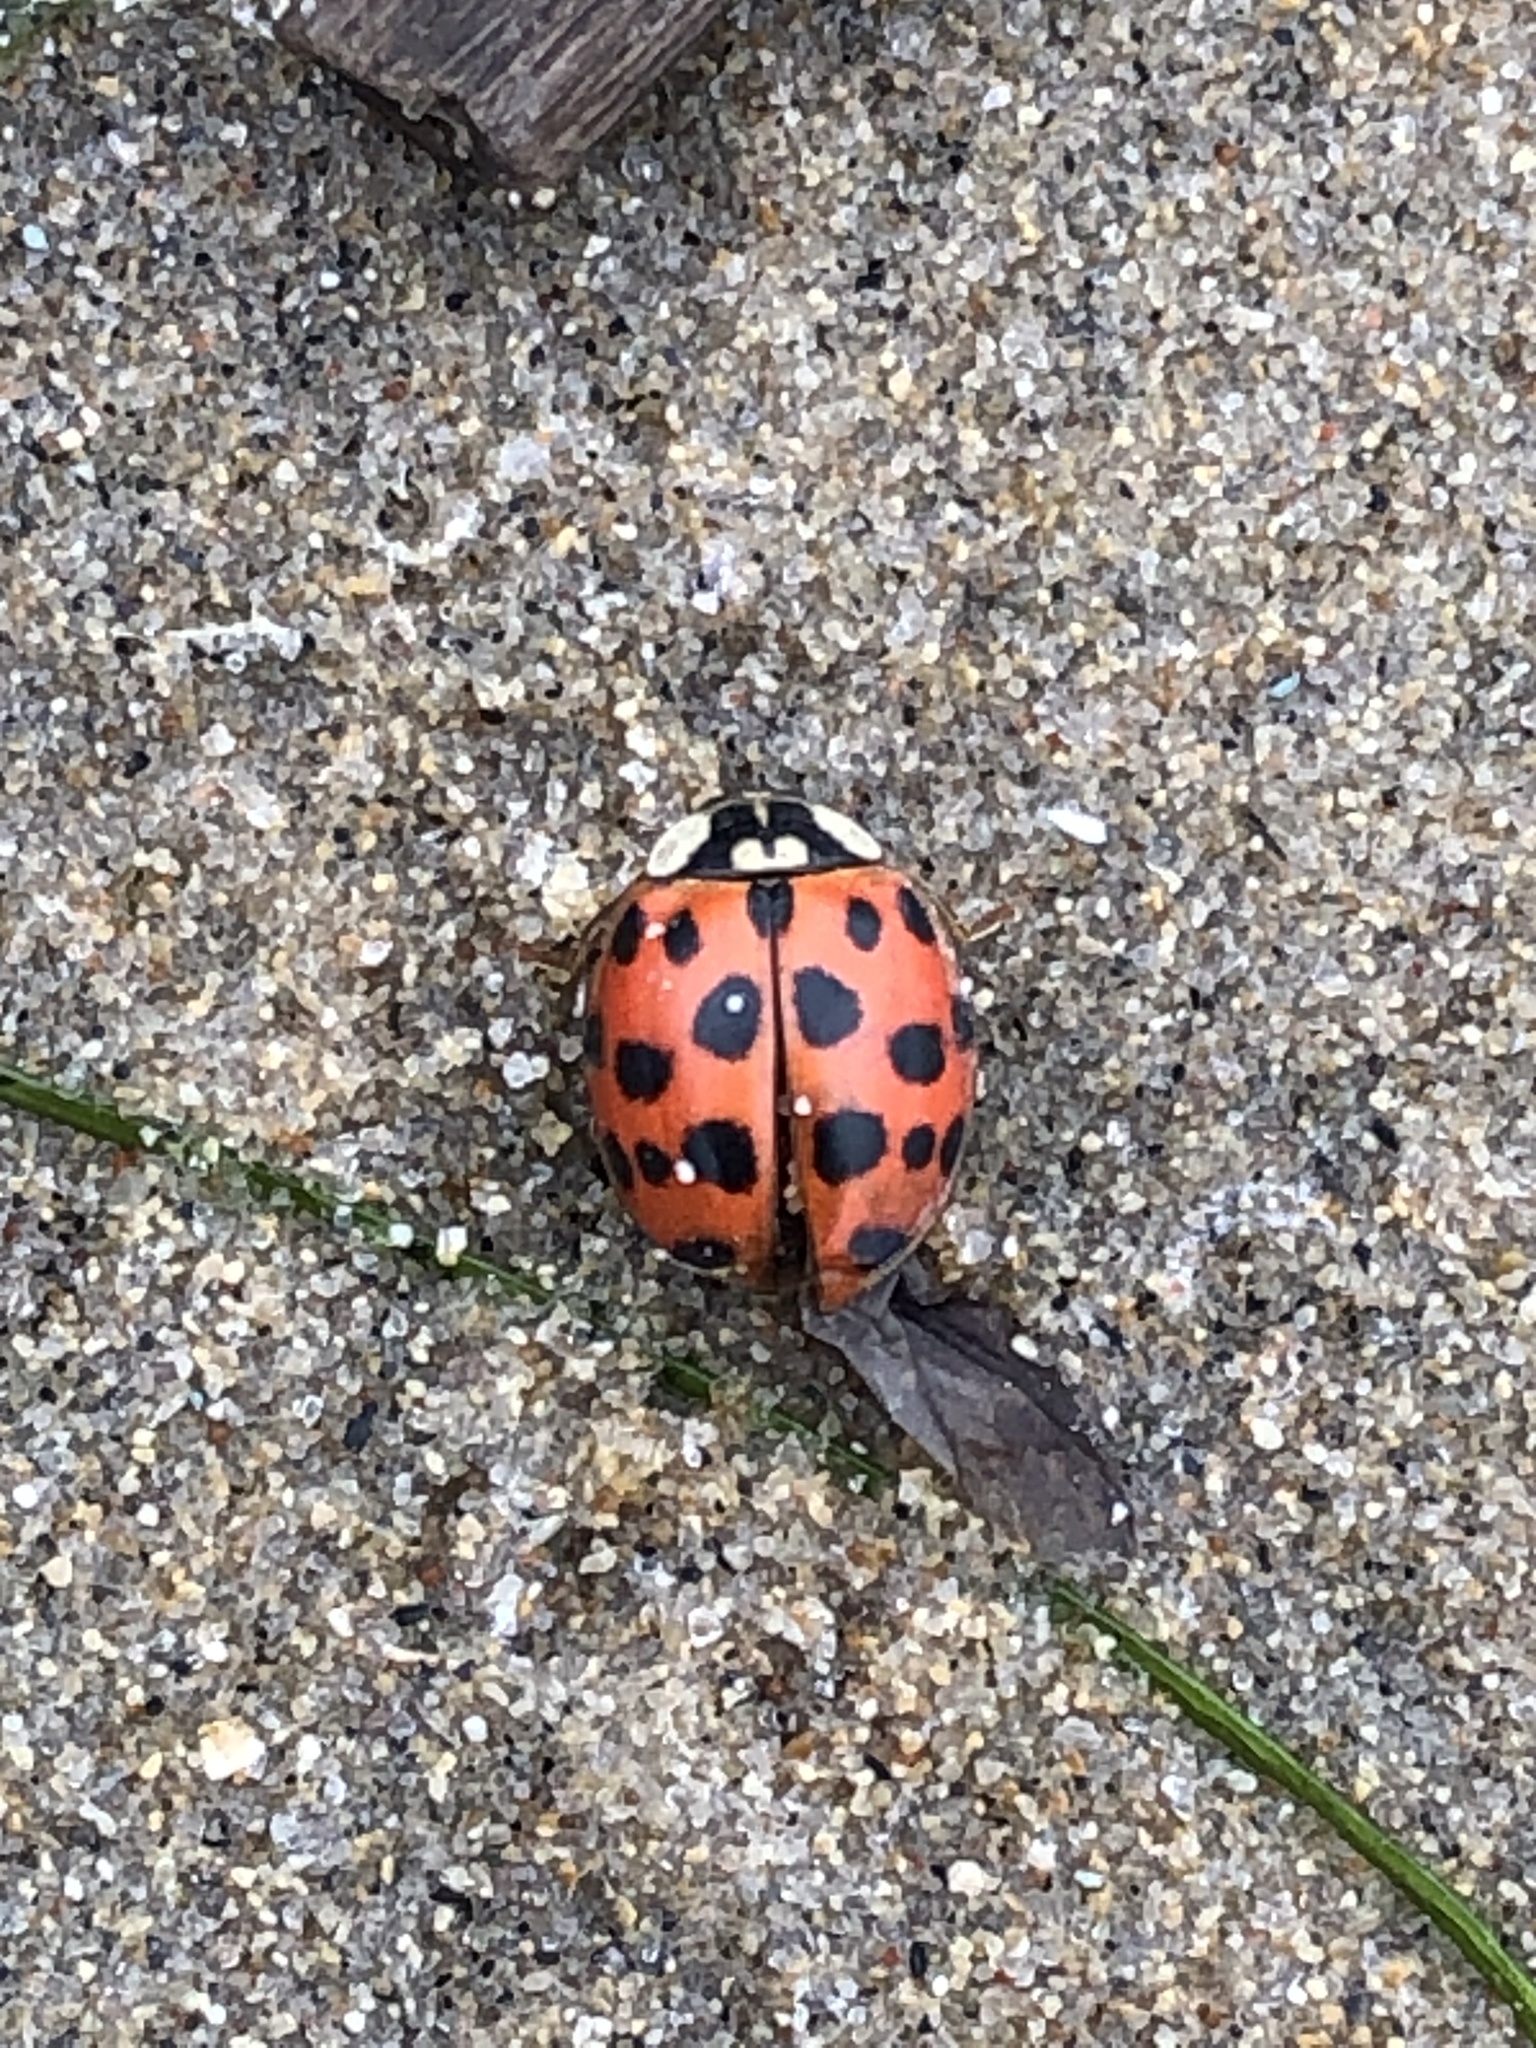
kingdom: Animalia
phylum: Arthropoda
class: Insecta
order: Coleoptera
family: Coccinellidae
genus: Harmonia
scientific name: Harmonia axyridis
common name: Harlequin ladybird
